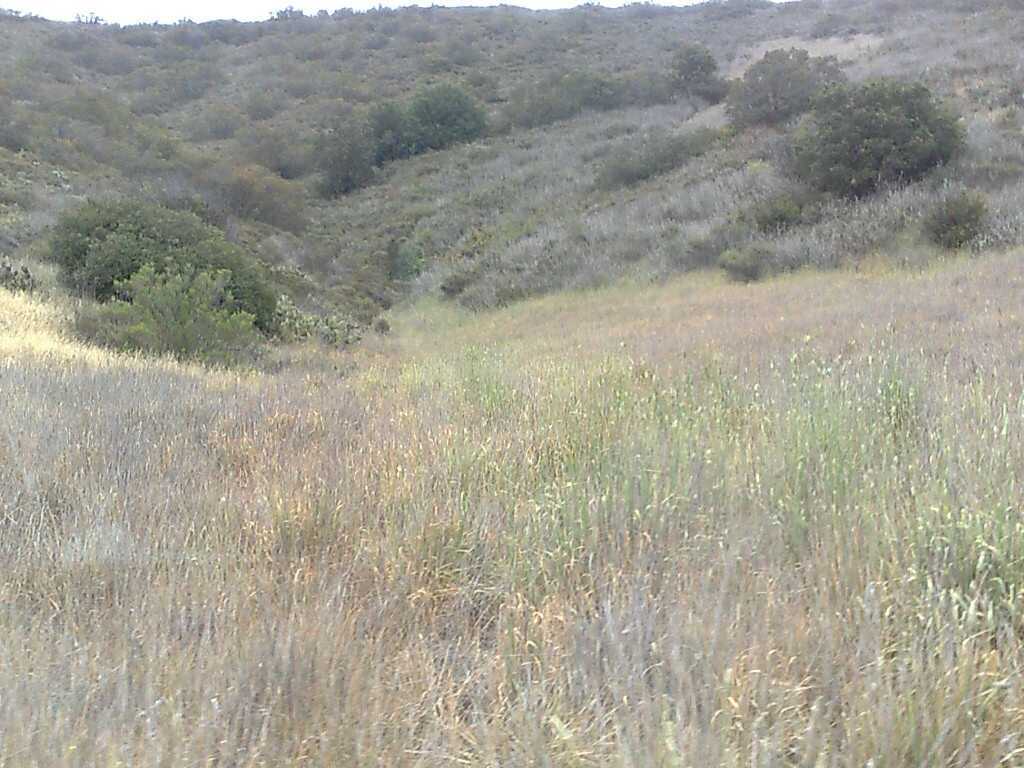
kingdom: Plantae
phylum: Tracheophyta
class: Liliopsida
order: Poales
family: Poaceae
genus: Phalaris
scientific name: Phalaris aquatica
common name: Bulbous canary-grass
